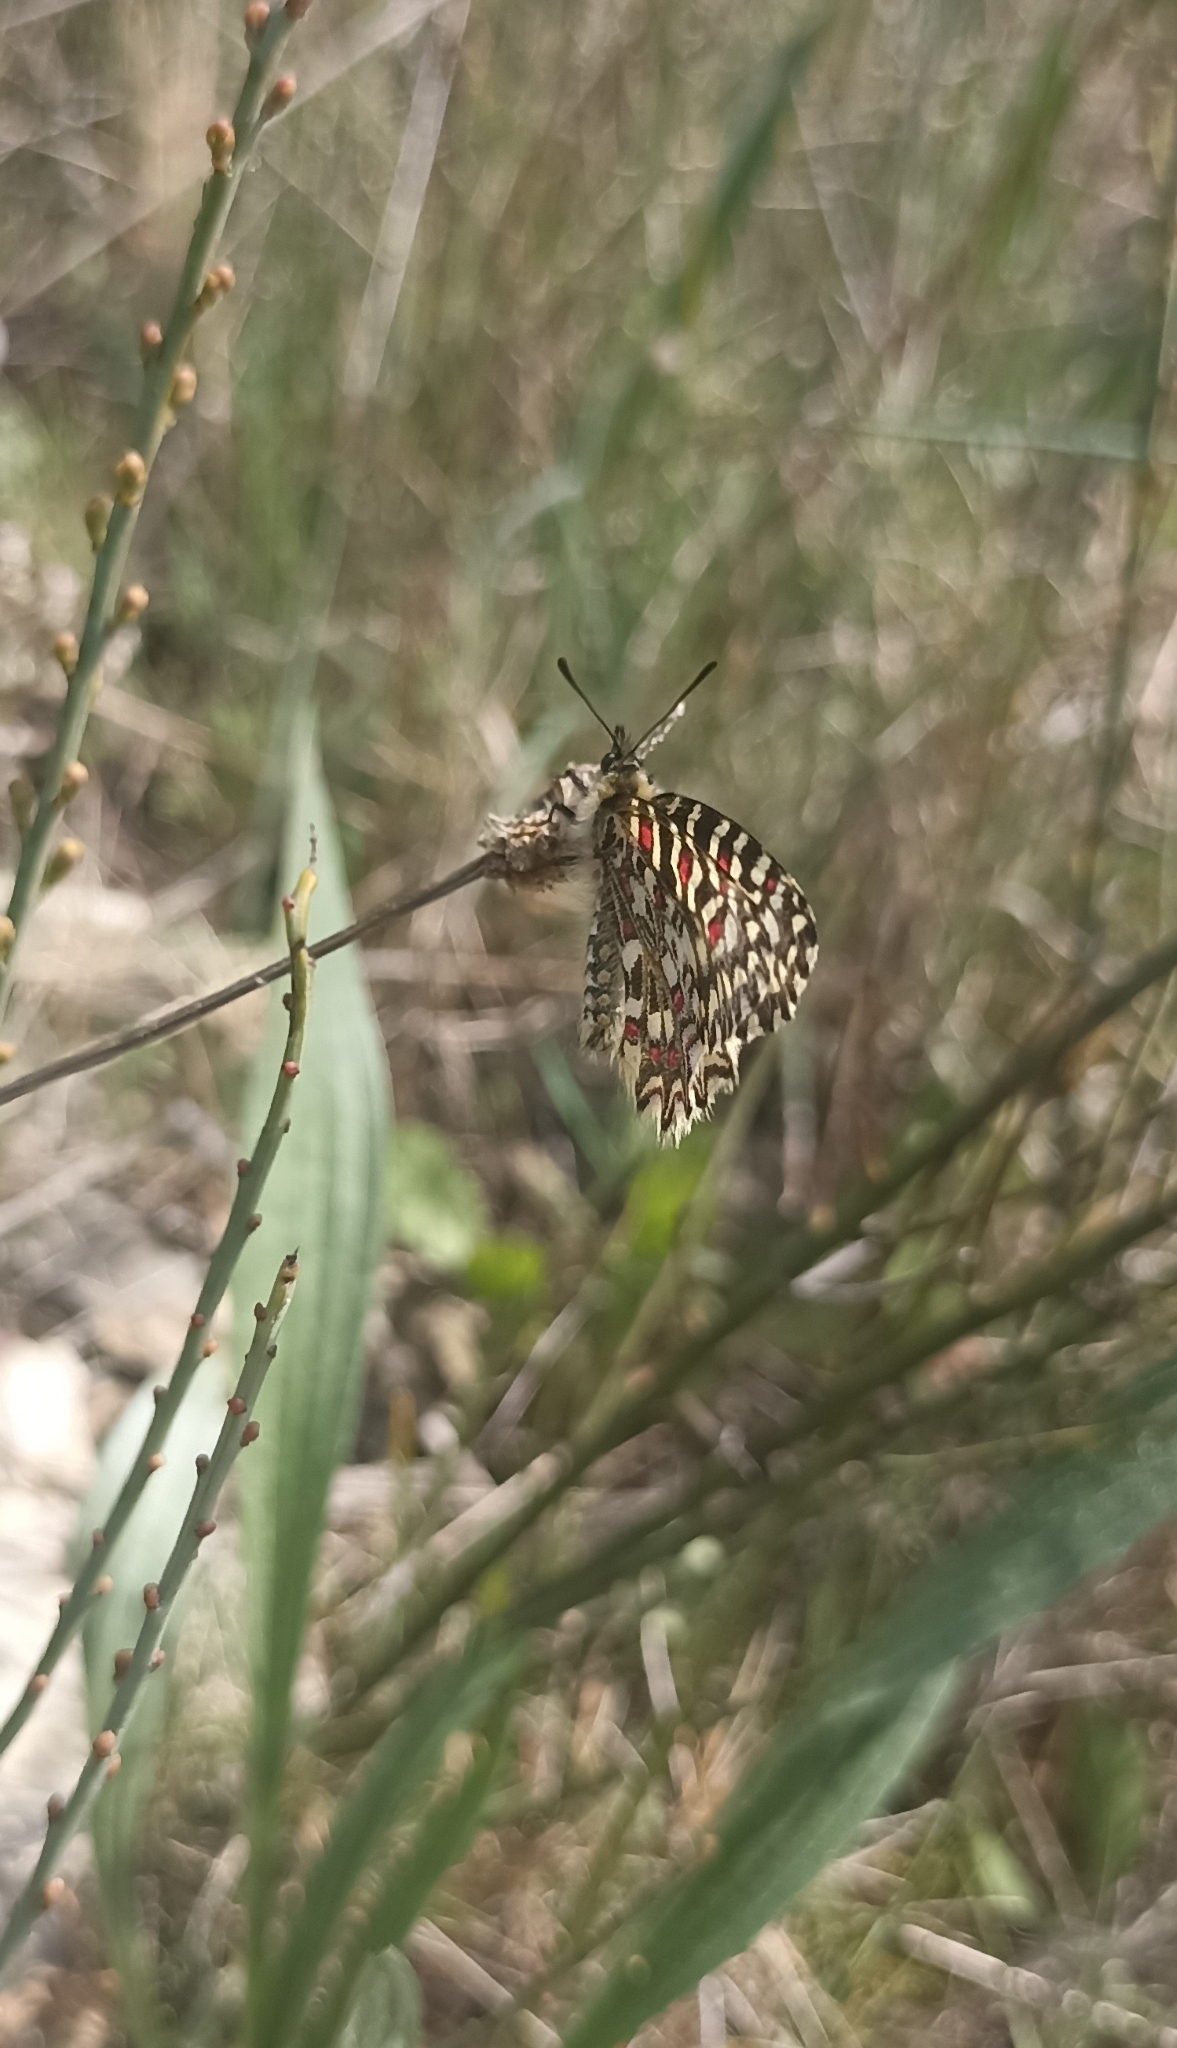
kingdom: Animalia
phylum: Arthropoda
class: Insecta
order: Lepidoptera
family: Papilionidae
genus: Zerynthia
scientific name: Zerynthia rumina
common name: Spanish festoon
